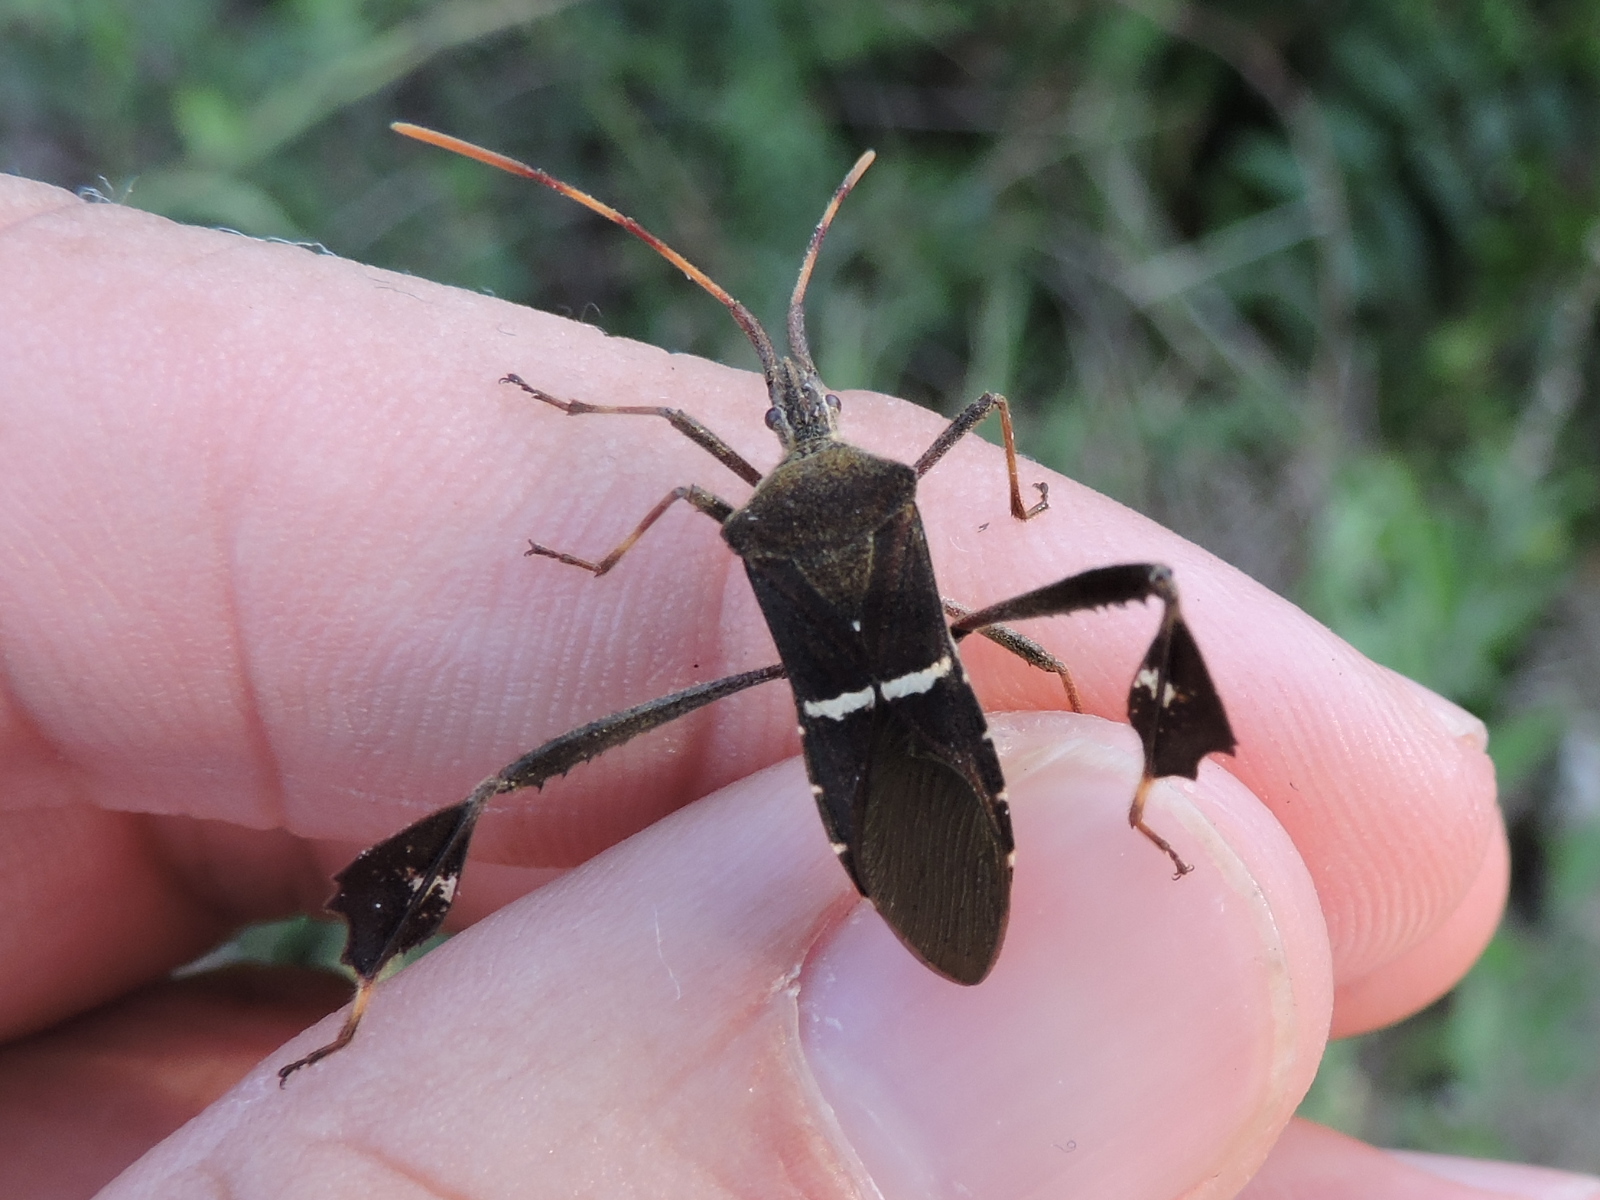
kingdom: Animalia
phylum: Arthropoda
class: Insecta
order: Hemiptera
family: Coreidae
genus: Leptoglossus
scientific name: Leptoglossus phyllopus
